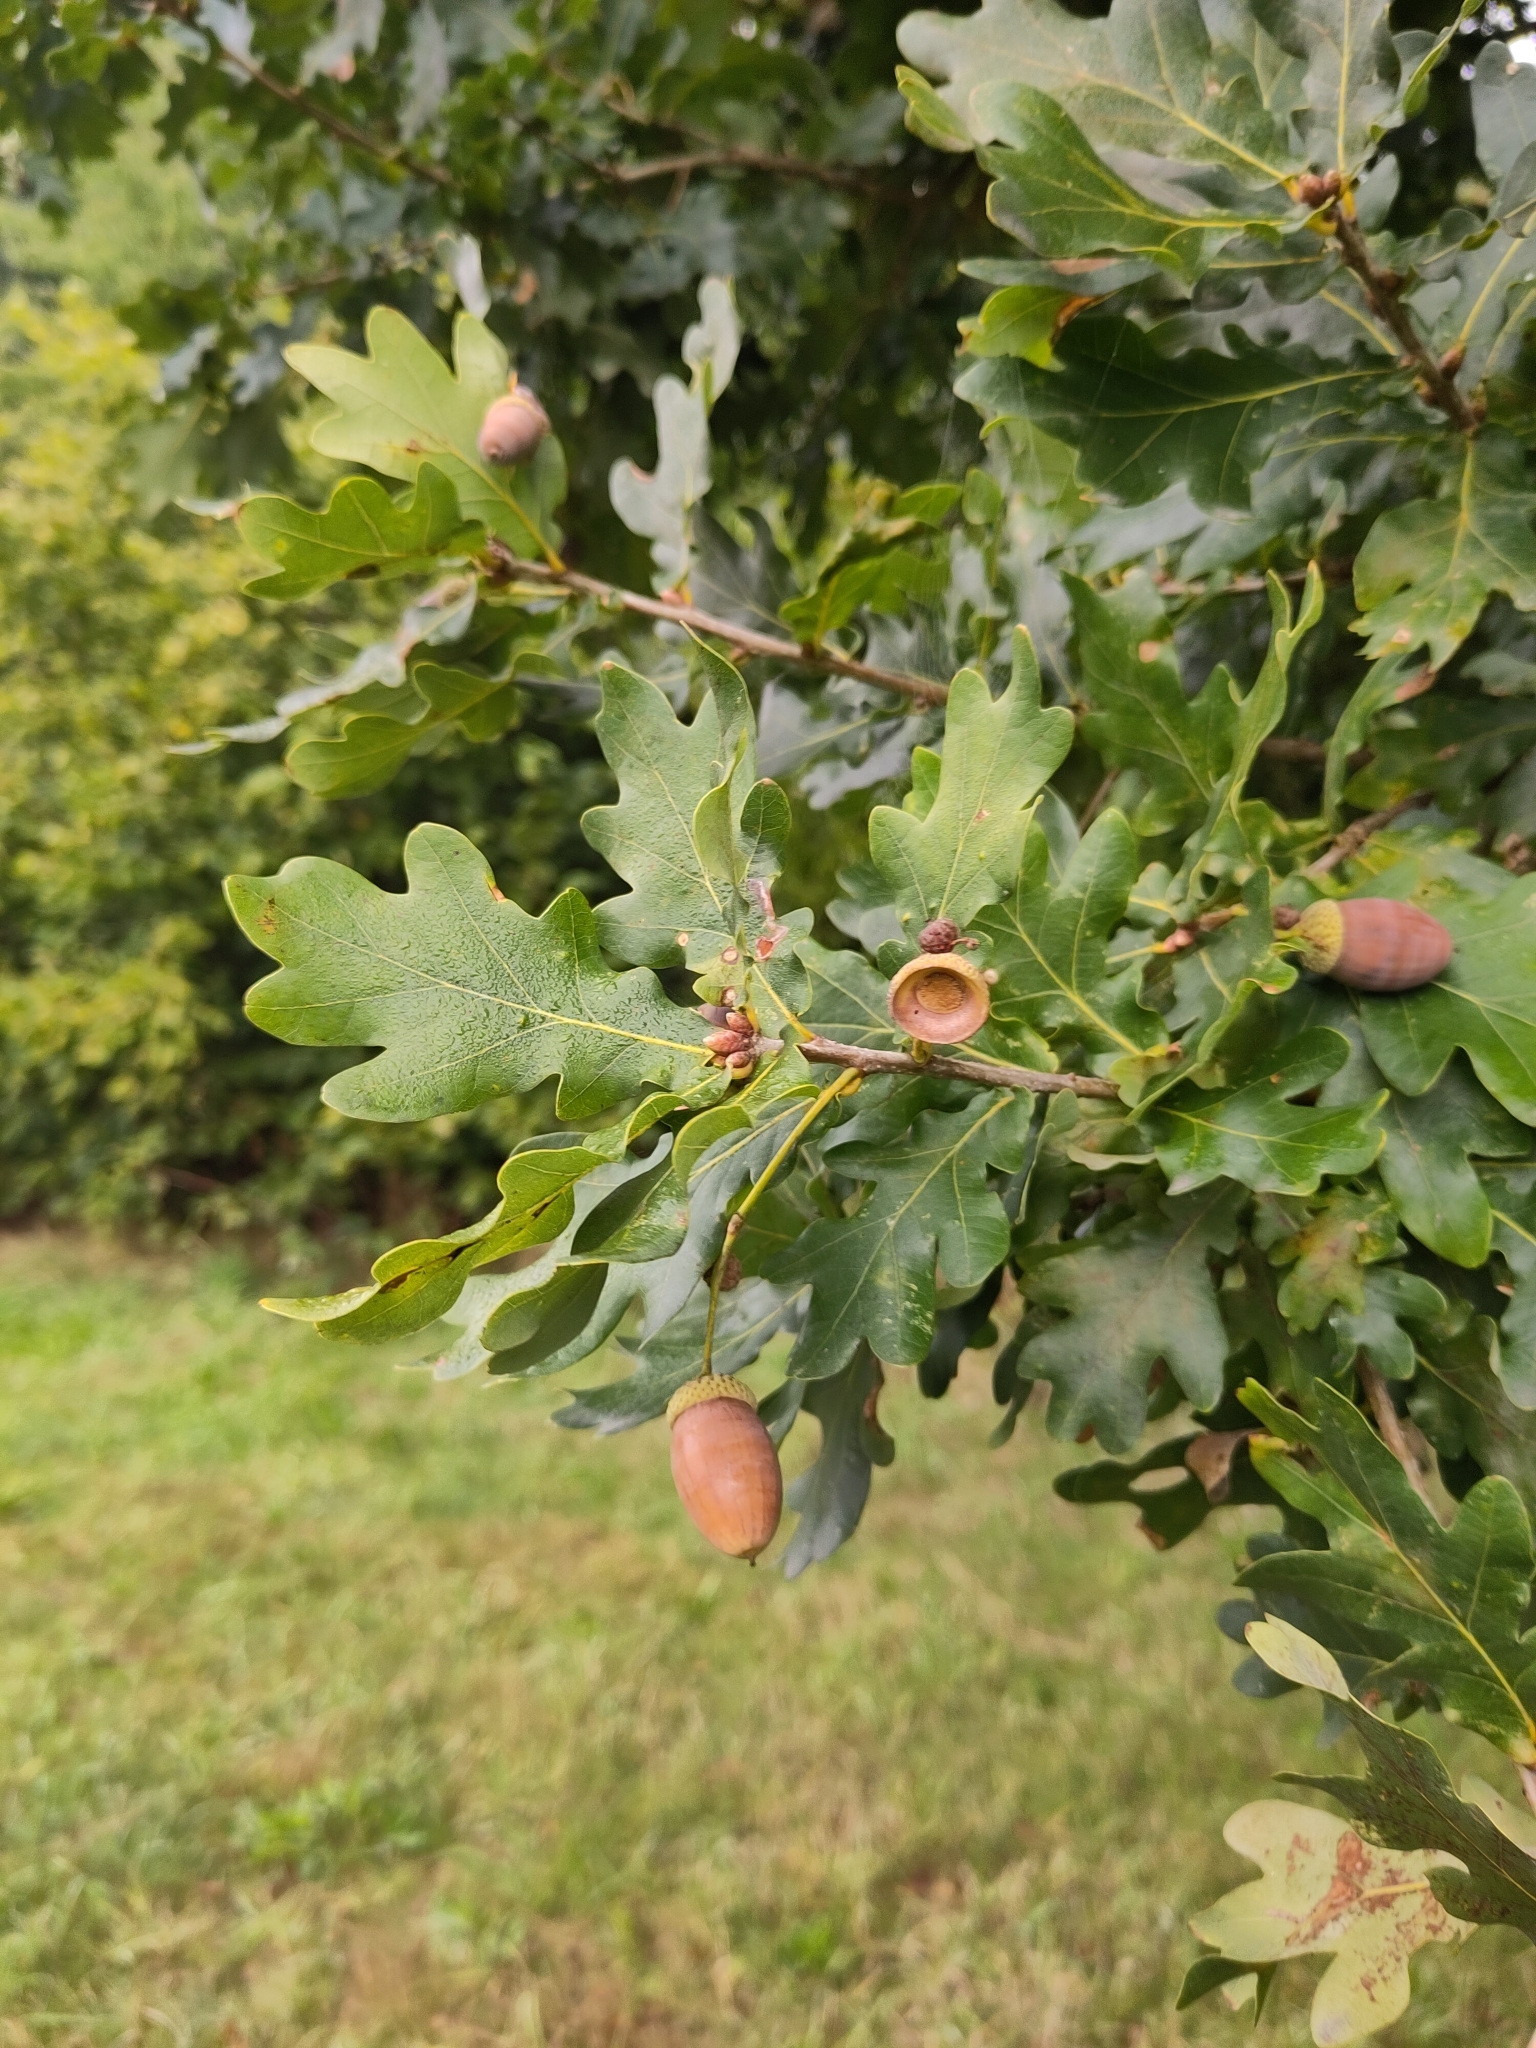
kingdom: Plantae
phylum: Tracheophyta
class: Magnoliopsida
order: Fagales
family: Fagaceae
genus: Quercus
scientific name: Quercus robur
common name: Pedunculate oak
